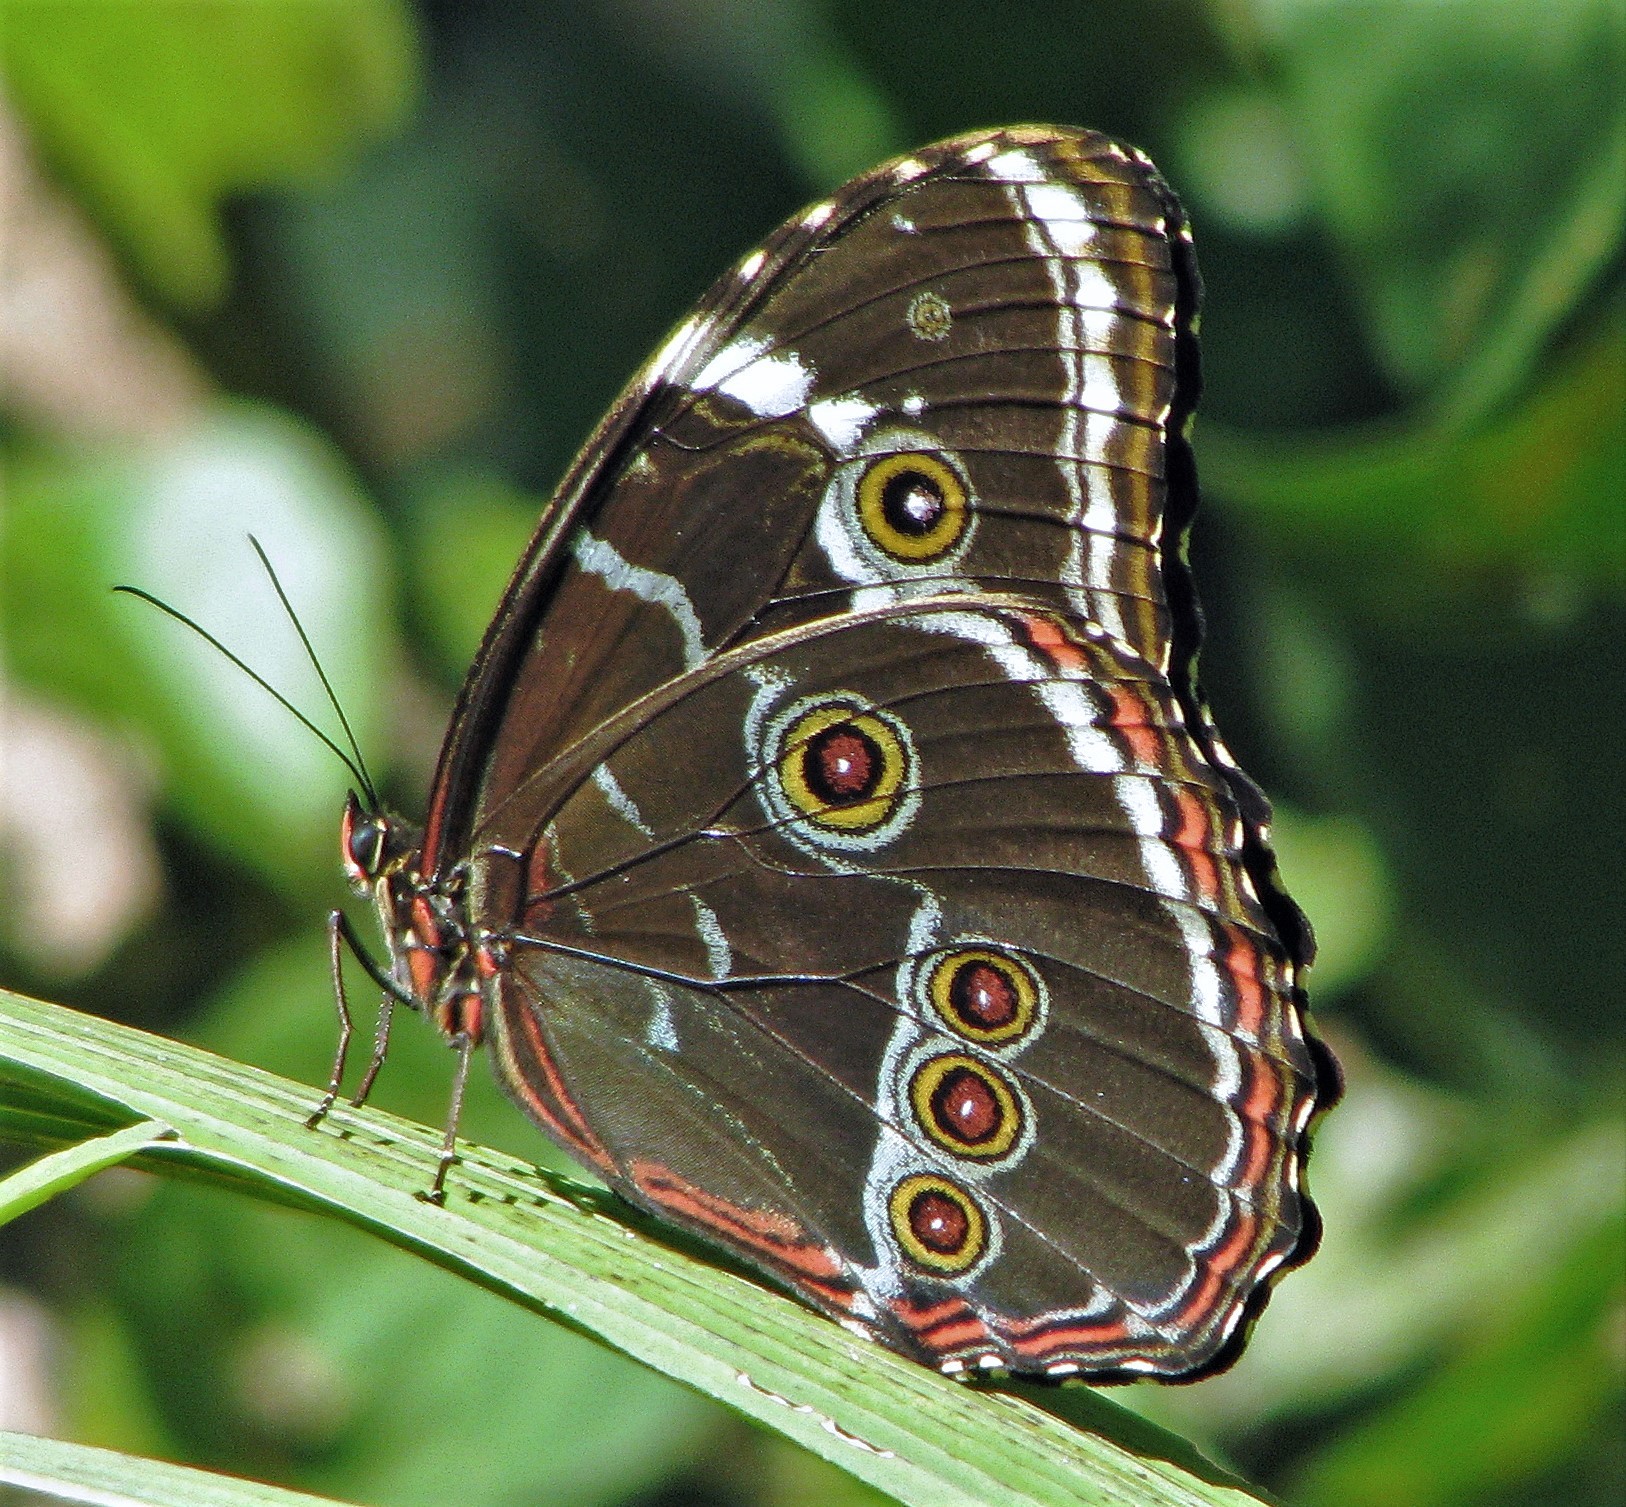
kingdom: Animalia
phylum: Arthropoda
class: Insecta
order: Lepidoptera
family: Nymphalidae
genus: Morpho
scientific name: Morpho helenor
